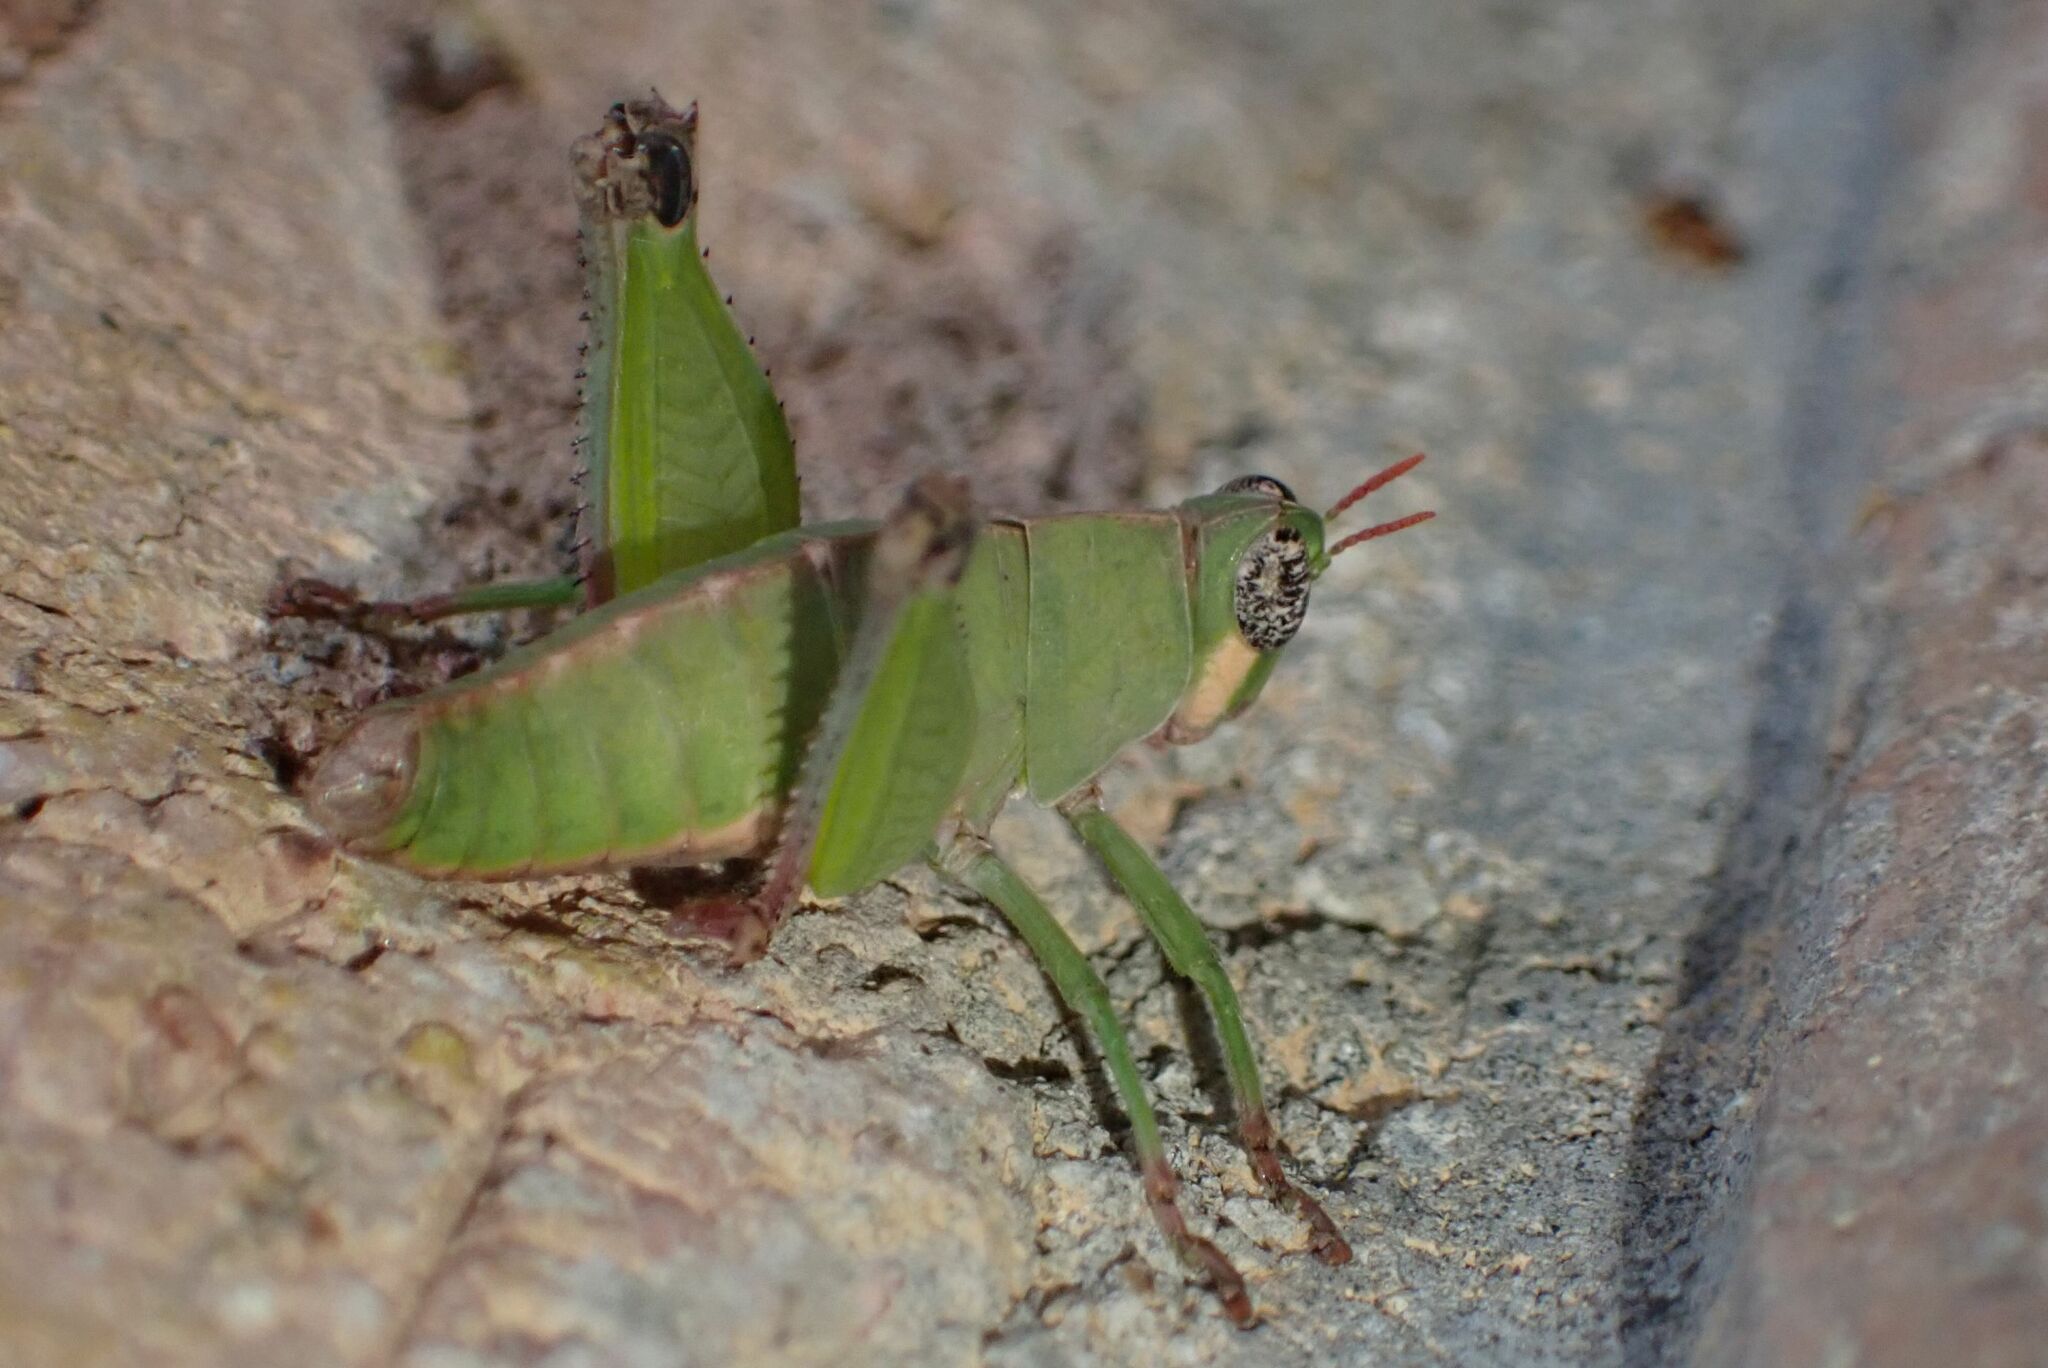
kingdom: Animalia
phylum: Arthropoda
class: Insecta
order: Orthoptera
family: Thericleidae
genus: Lophothericles
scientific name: Lophothericles modestus
